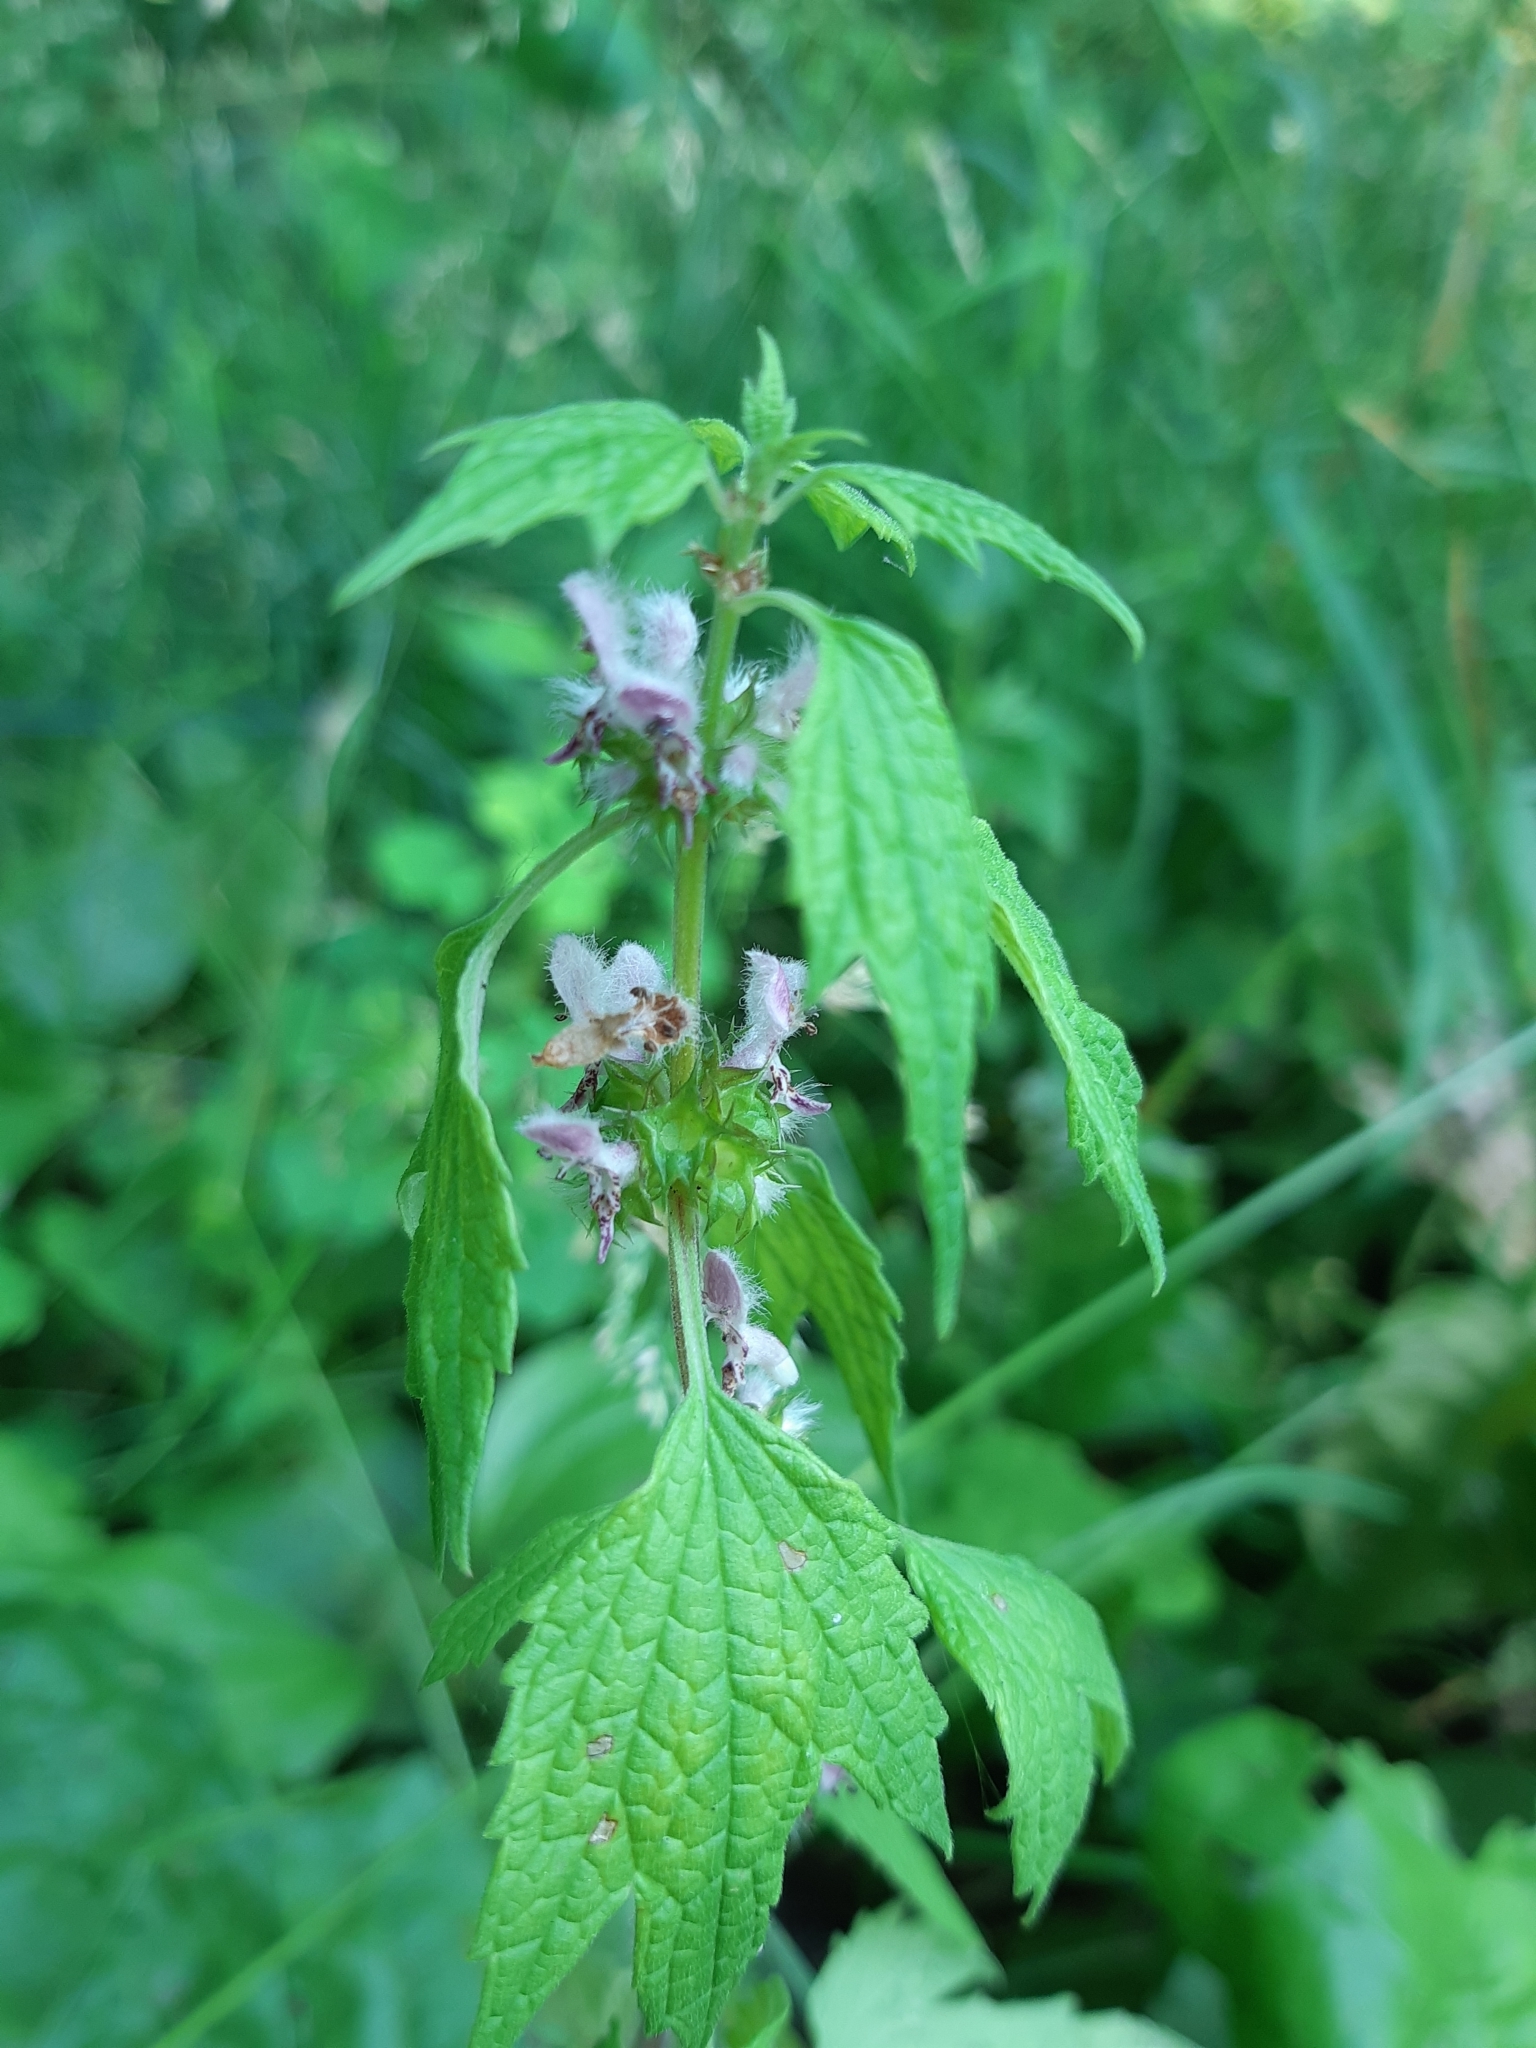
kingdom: Plantae
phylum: Tracheophyta
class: Magnoliopsida
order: Lamiales
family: Lamiaceae
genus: Leonurus
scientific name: Leonurus cardiaca
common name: Motherwort
